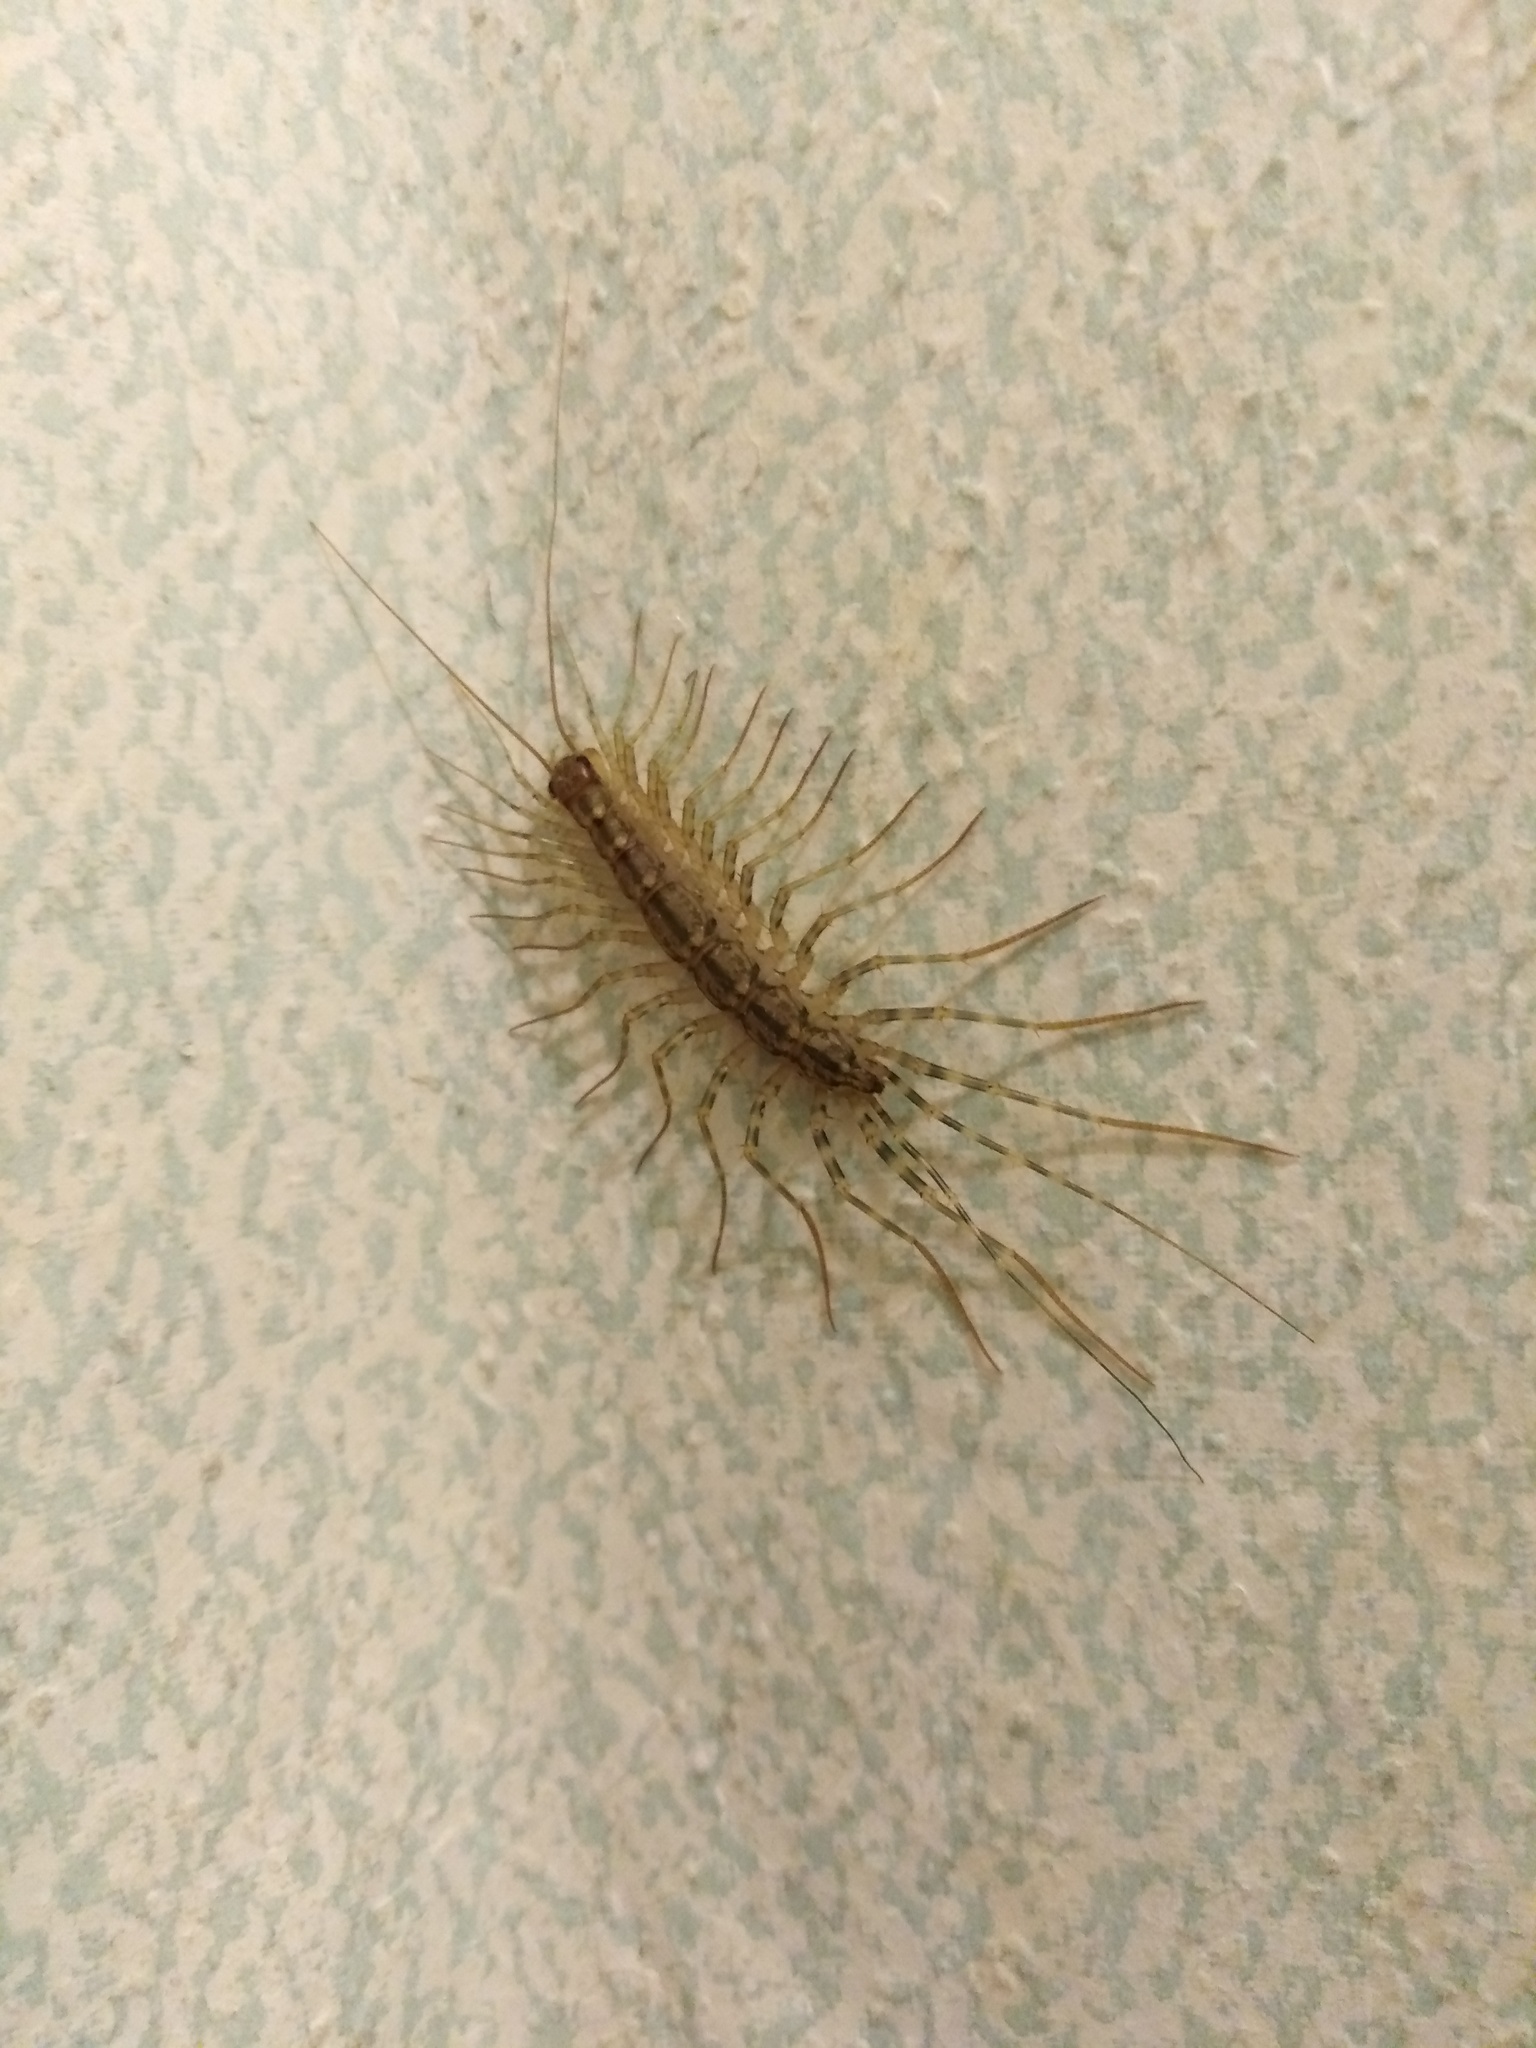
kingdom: Animalia
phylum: Arthropoda
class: Chilopoda
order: Scutigeromorpha
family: Scutigeridae
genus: Scutigera
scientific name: Scutigera coleoptrata
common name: House centipede
